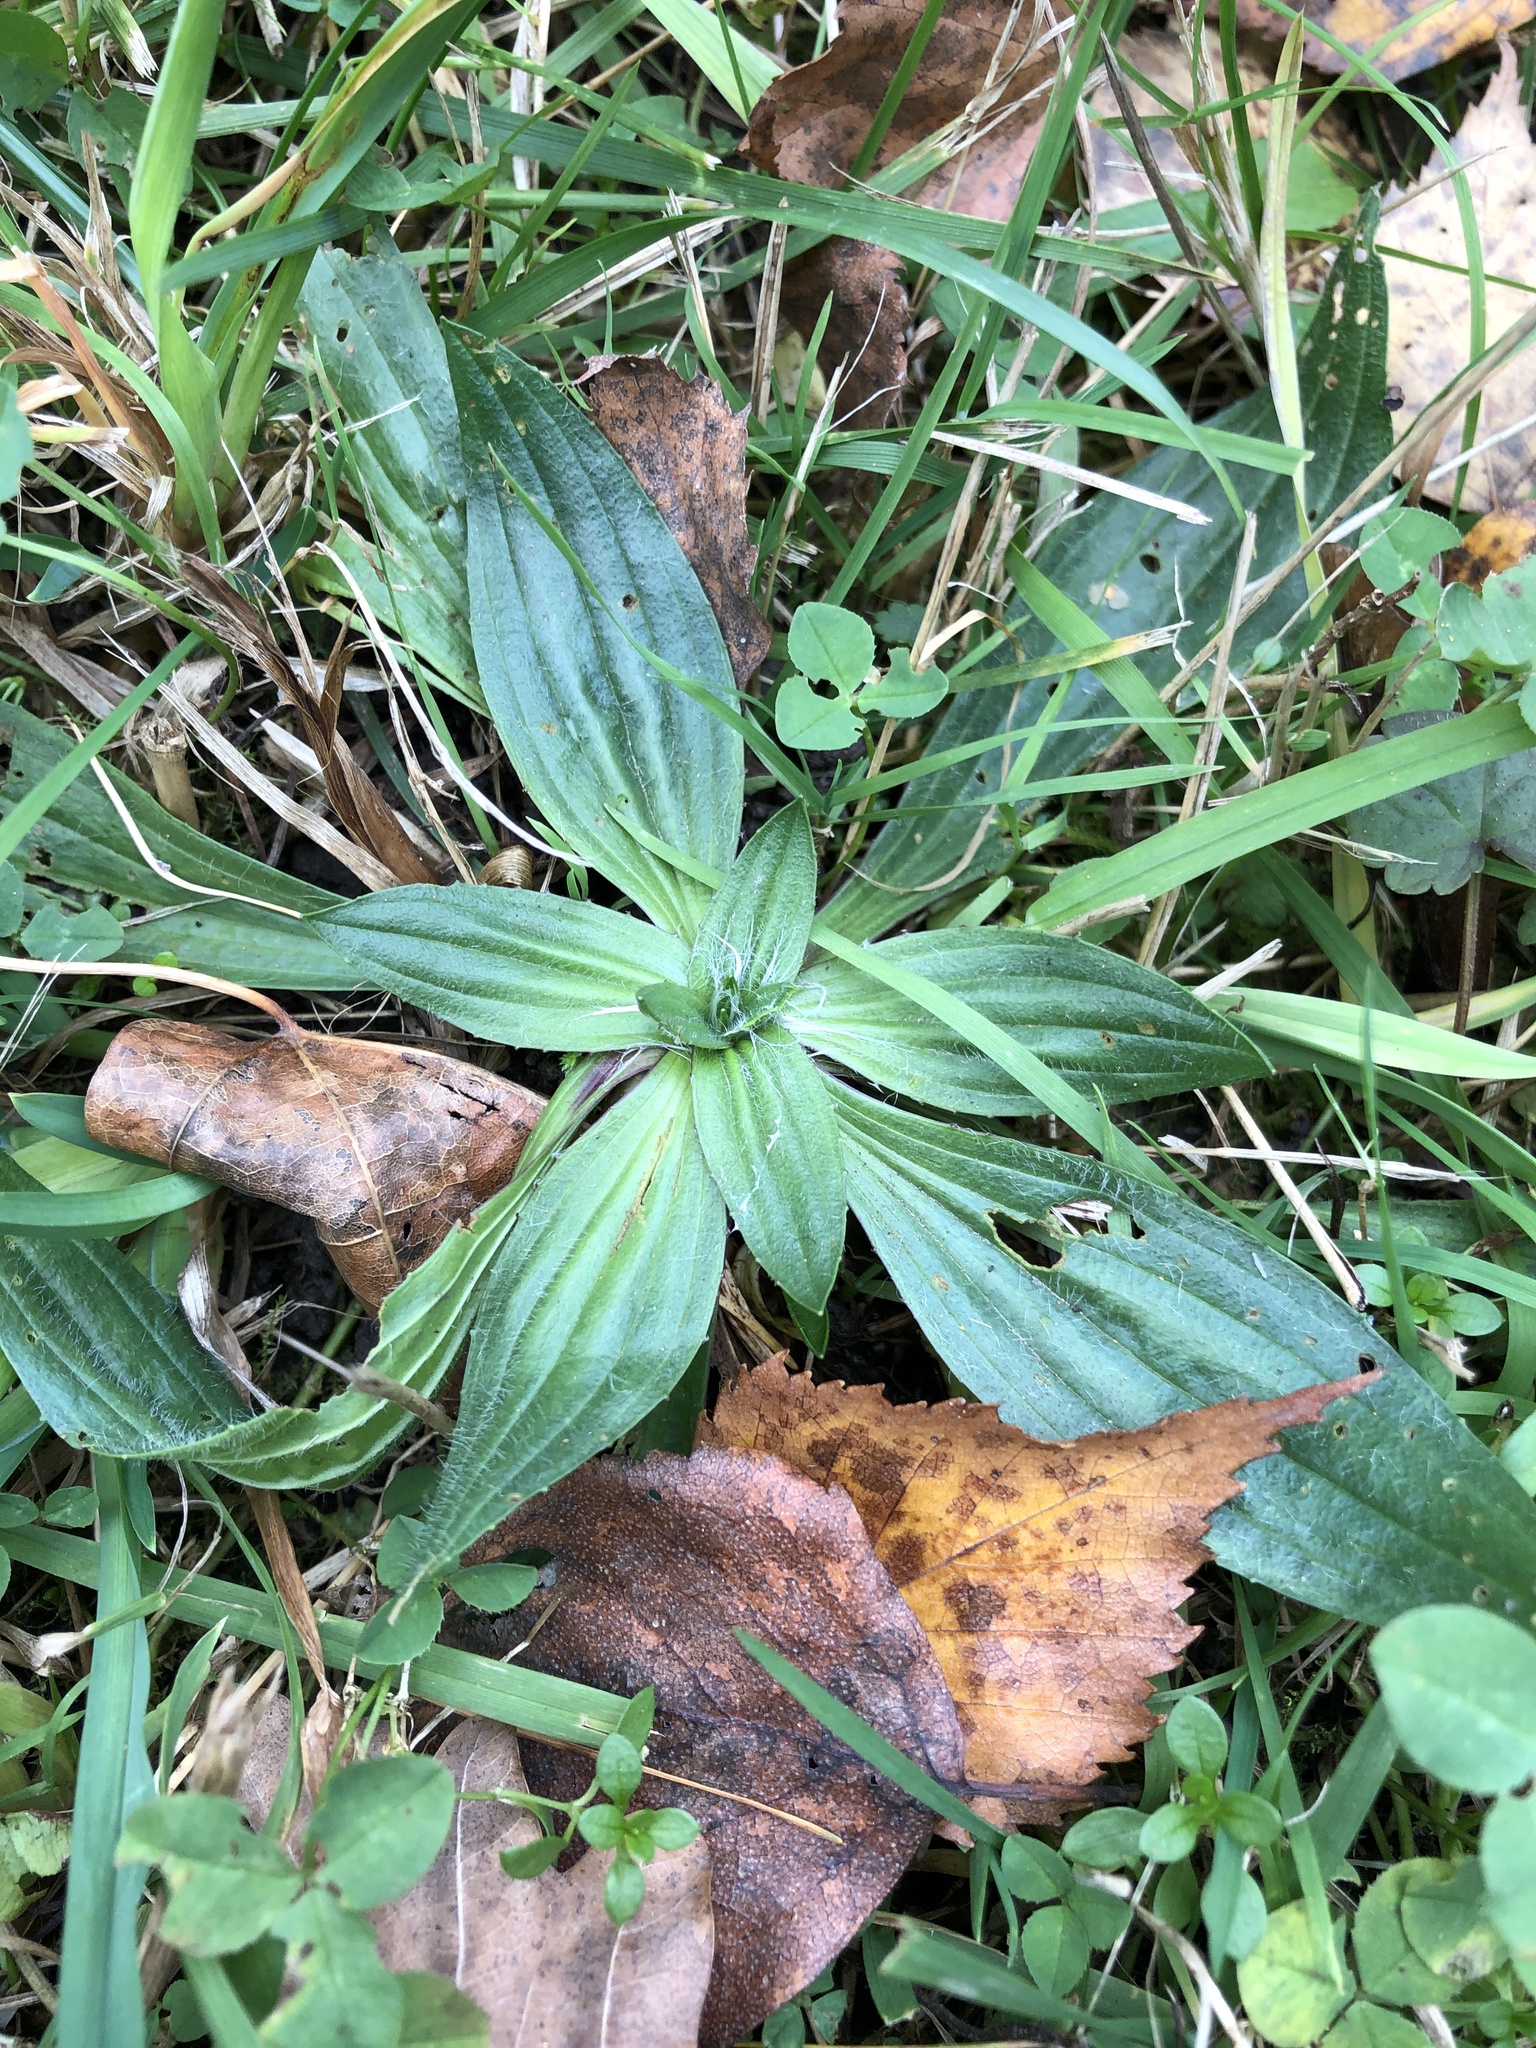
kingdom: Plantae
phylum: Tracheophyta
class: Magnoliopsida
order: Lamiales
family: Plantaginaceae
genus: Plantago
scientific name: Plantago lanceolata
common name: Ribwort plantain
